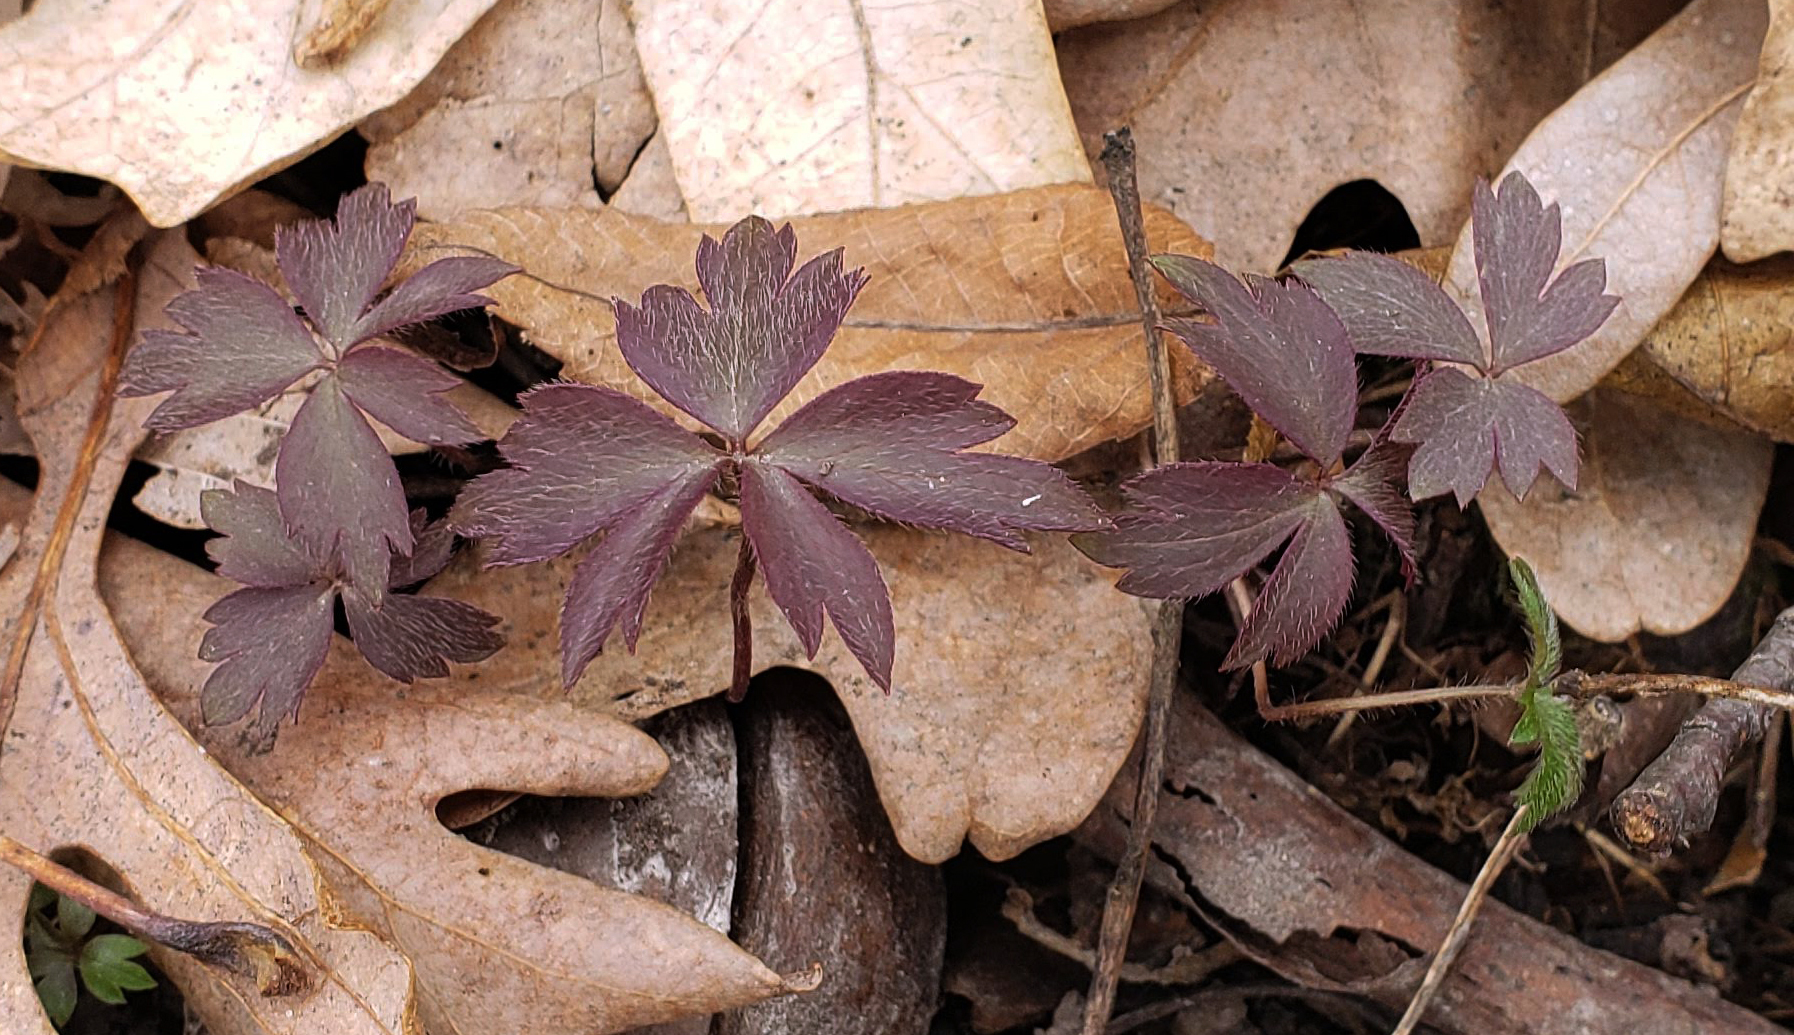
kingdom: Plantae
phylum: Tracheophyta
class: Magnoliopsida
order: Ranunculales
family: Ranunculaceae
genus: Anemone
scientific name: Anemone quinquefolia
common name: Wood anemone
